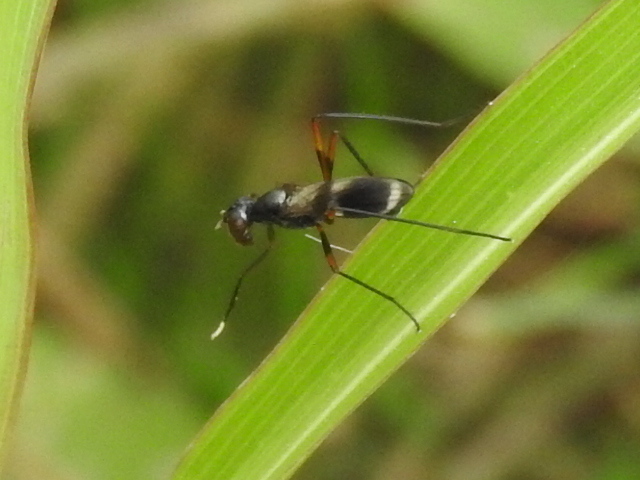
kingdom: Animalia
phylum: Arthropoda
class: Insecta
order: Diptera
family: Micropezidae
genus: Taeniaptera
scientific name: Taeniaptera trivittata
